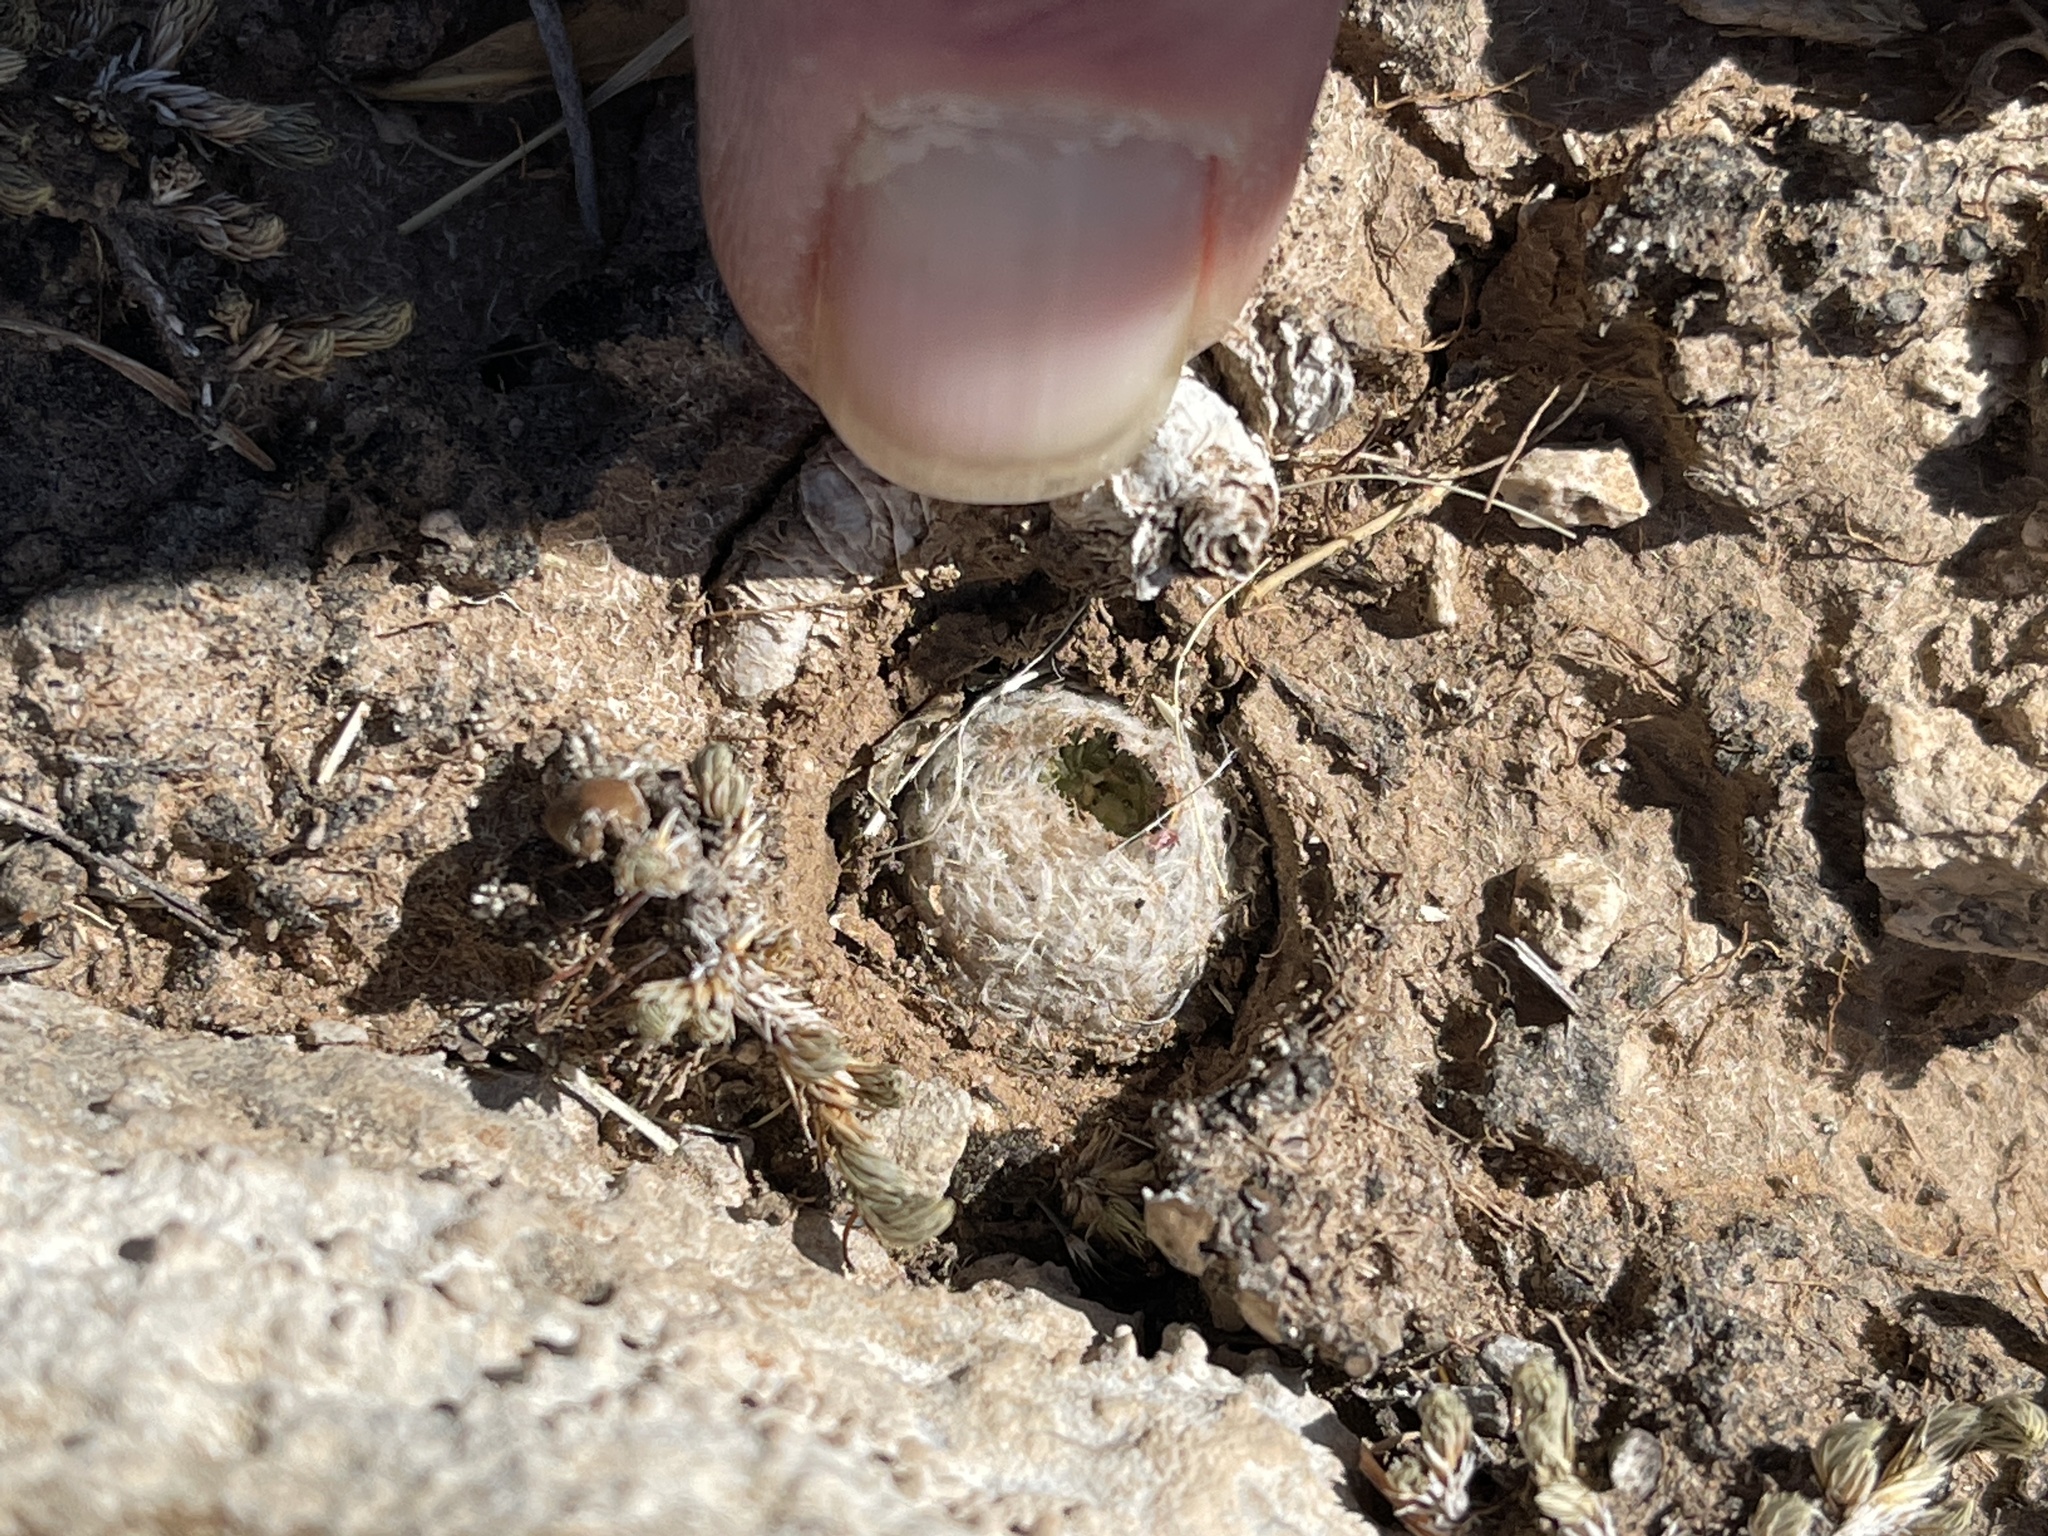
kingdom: Plantae
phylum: Tracheophyta
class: Magnoliopsida
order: Caryophyllales
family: Cactaceae
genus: Mammillaria
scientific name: Mammillaria lasiacantha
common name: Lace-spine nipple cactus
